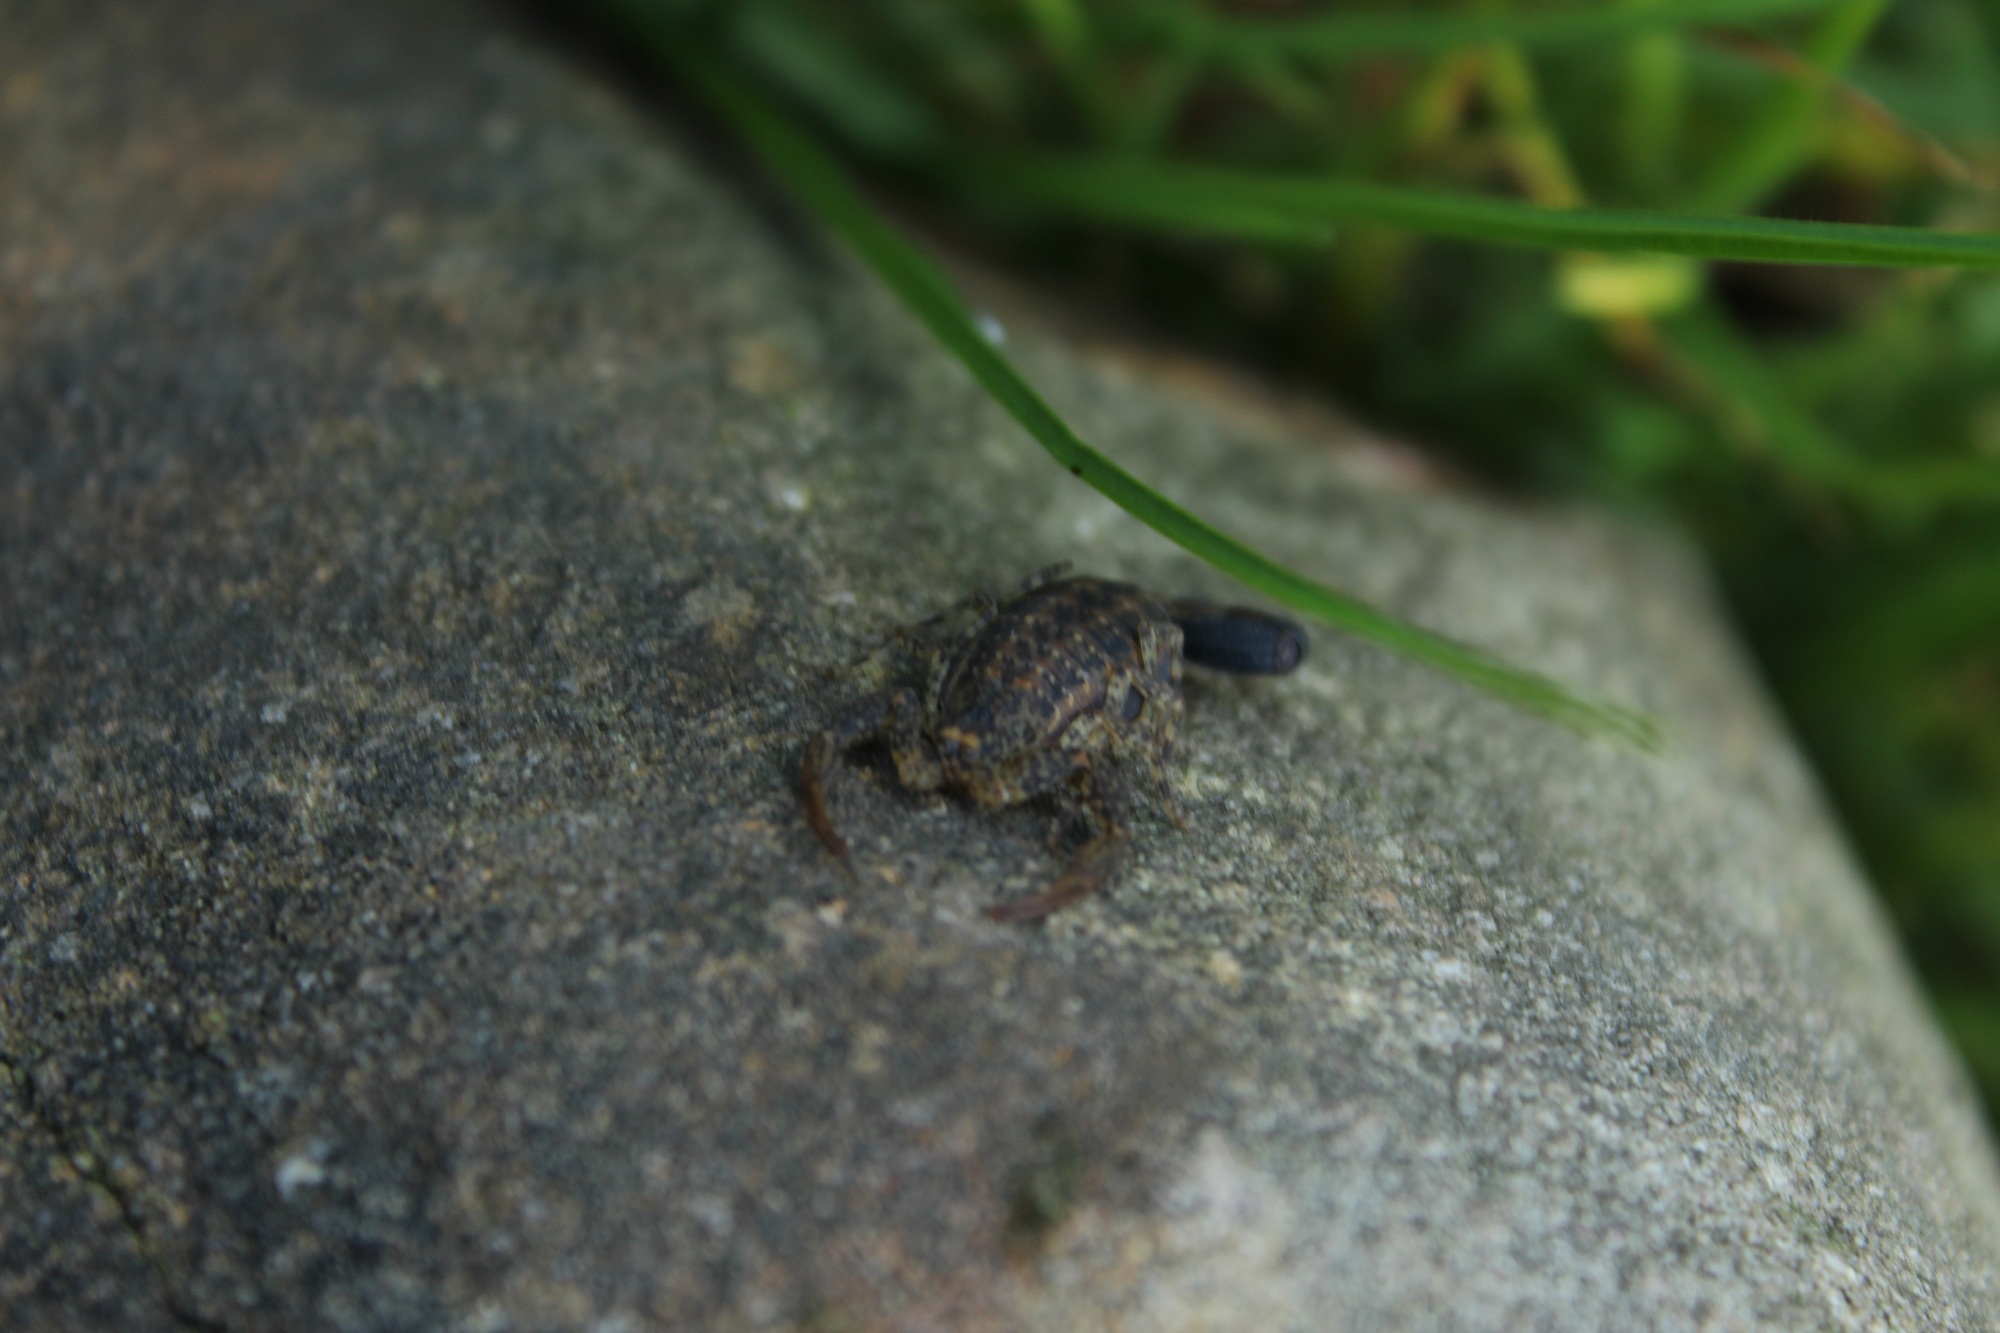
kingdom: Animalia
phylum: Arthropoda
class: Arachnida
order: Scorpiones
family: Buthidae
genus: Tityus
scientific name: Tityus columbianus
